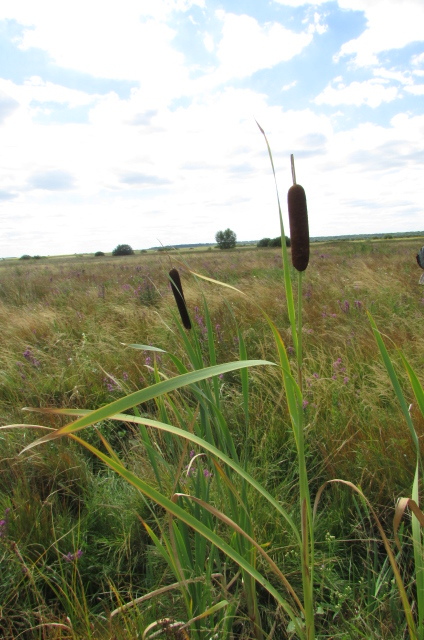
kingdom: Plantae
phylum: Tracheophyta
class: Liliopsida
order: Poales
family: Typhaceae
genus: Typha
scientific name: Typha latifolia
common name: Broadleaf cattail
